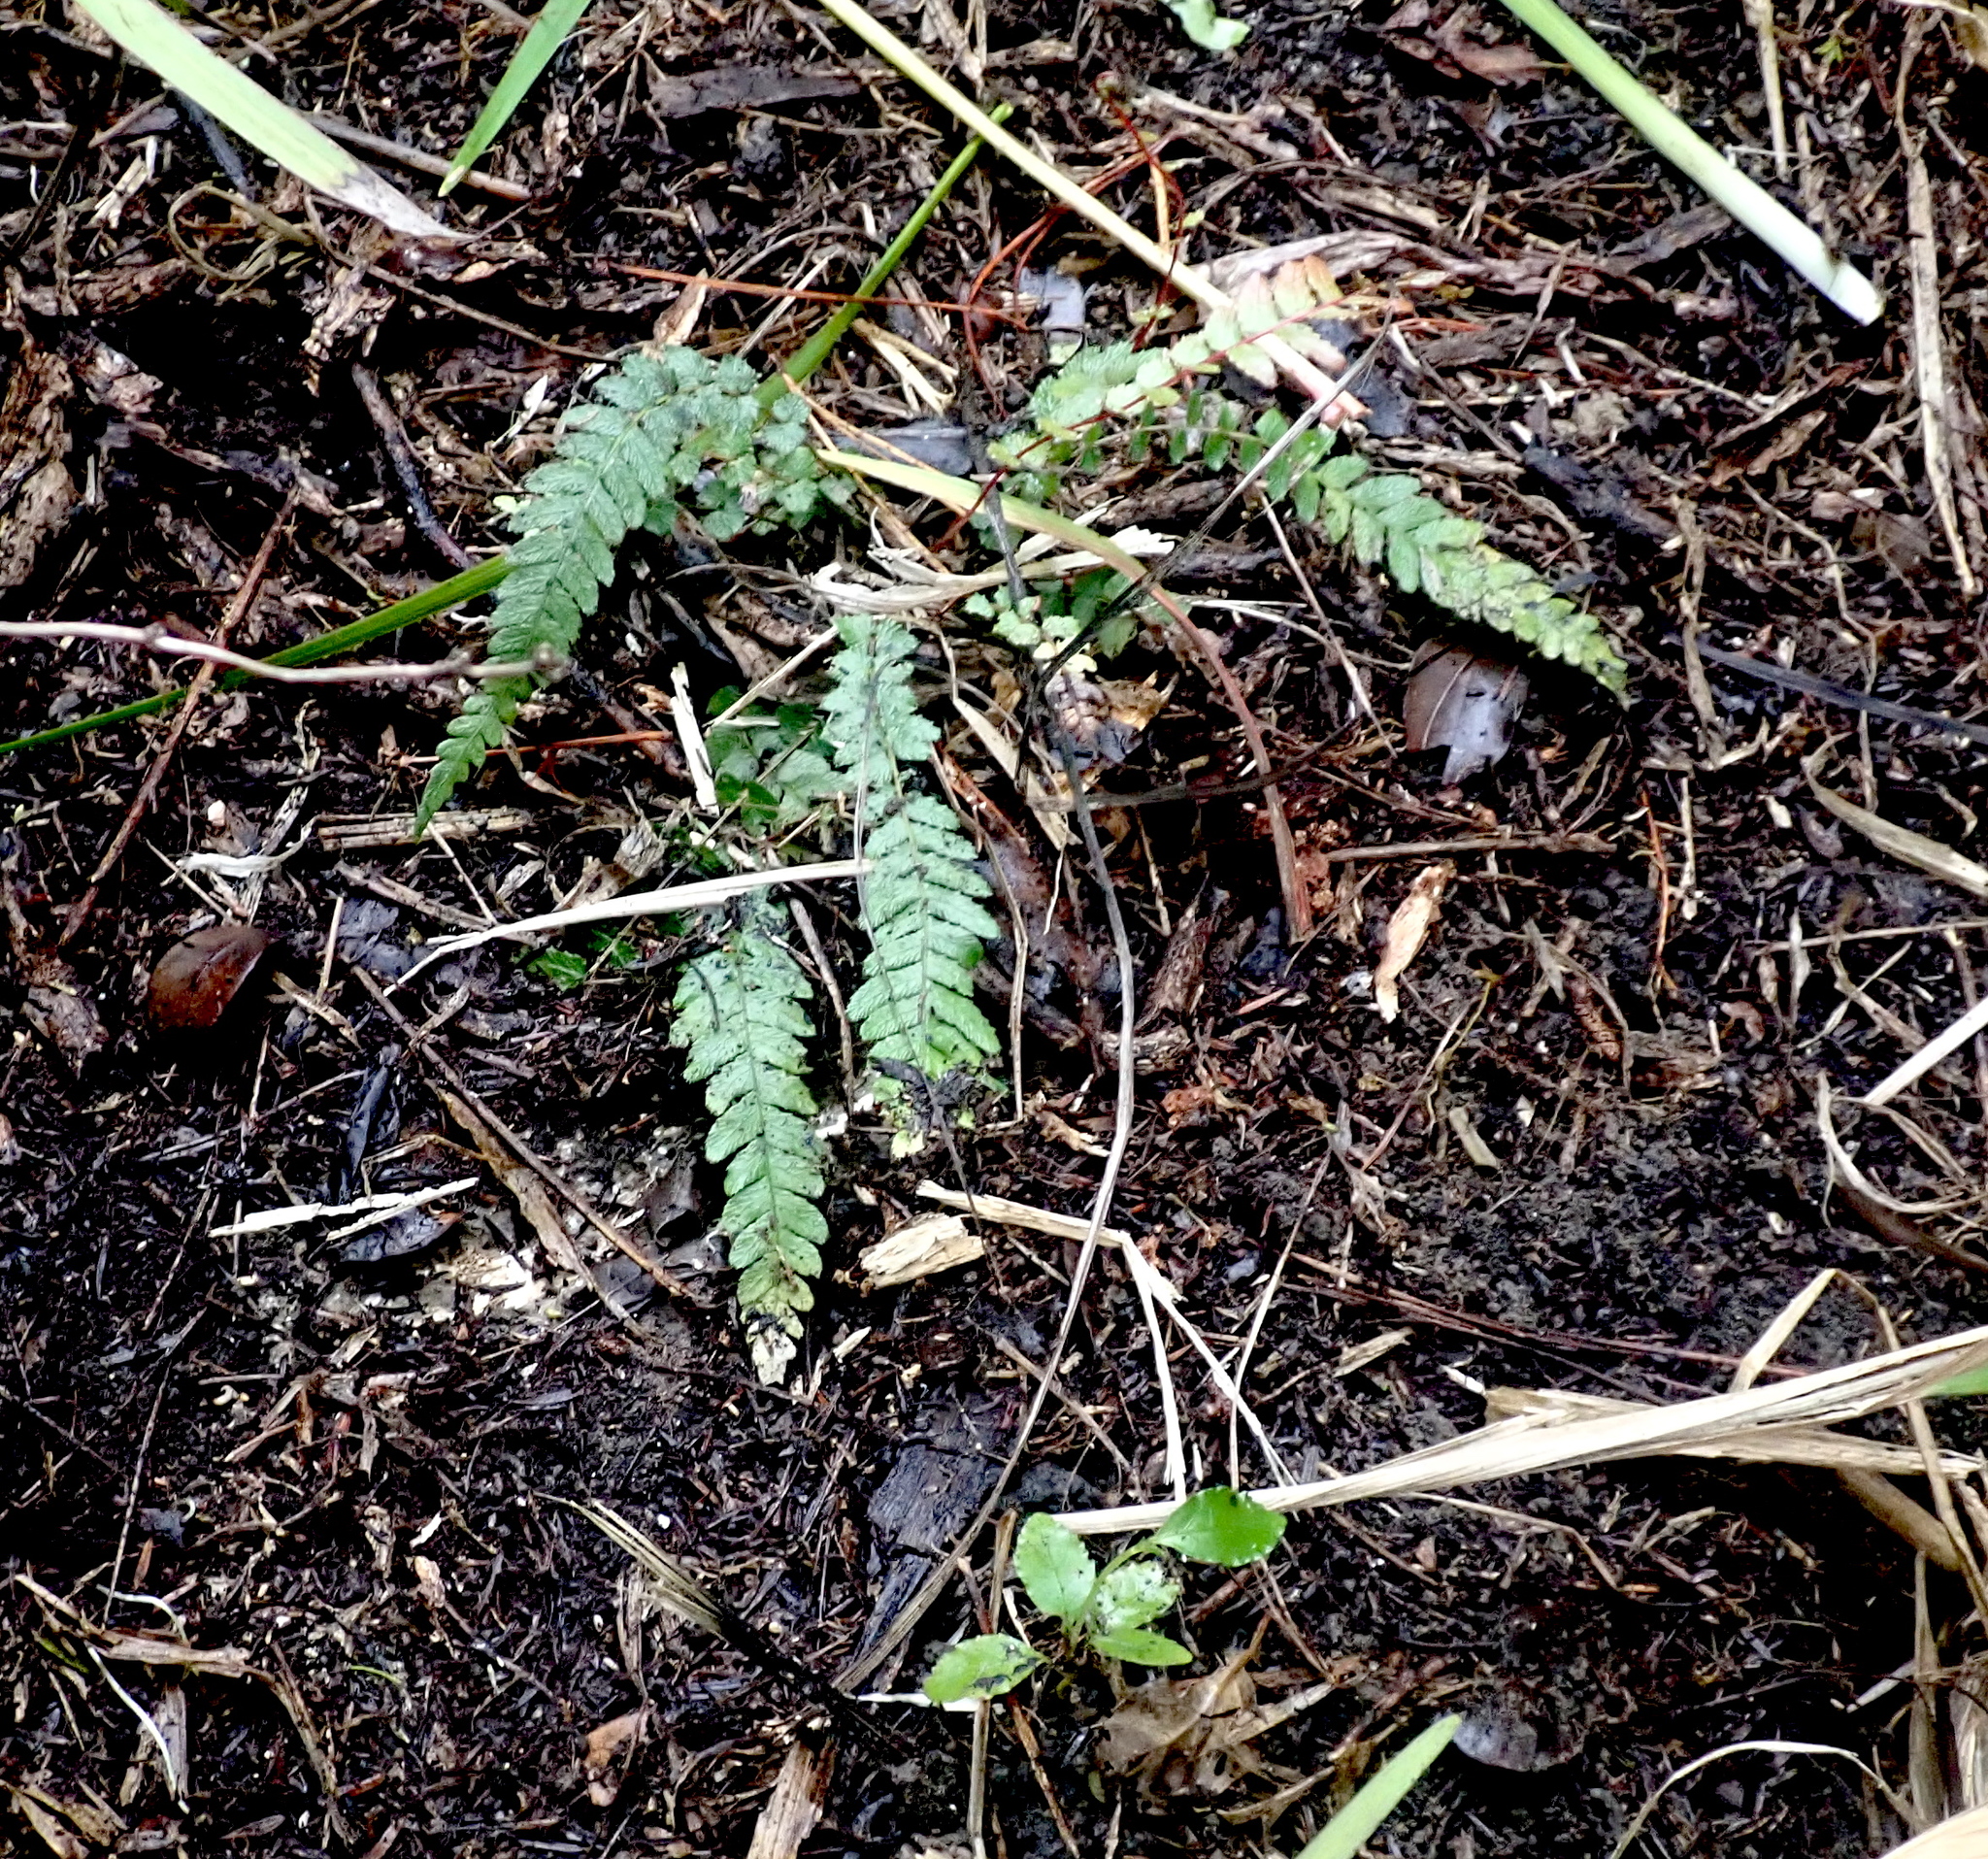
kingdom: Plantae
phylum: Tracheophyta
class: Polypodiopsida
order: Polypodiales
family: Blechnaceae
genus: Doodia
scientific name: Doodia australis
